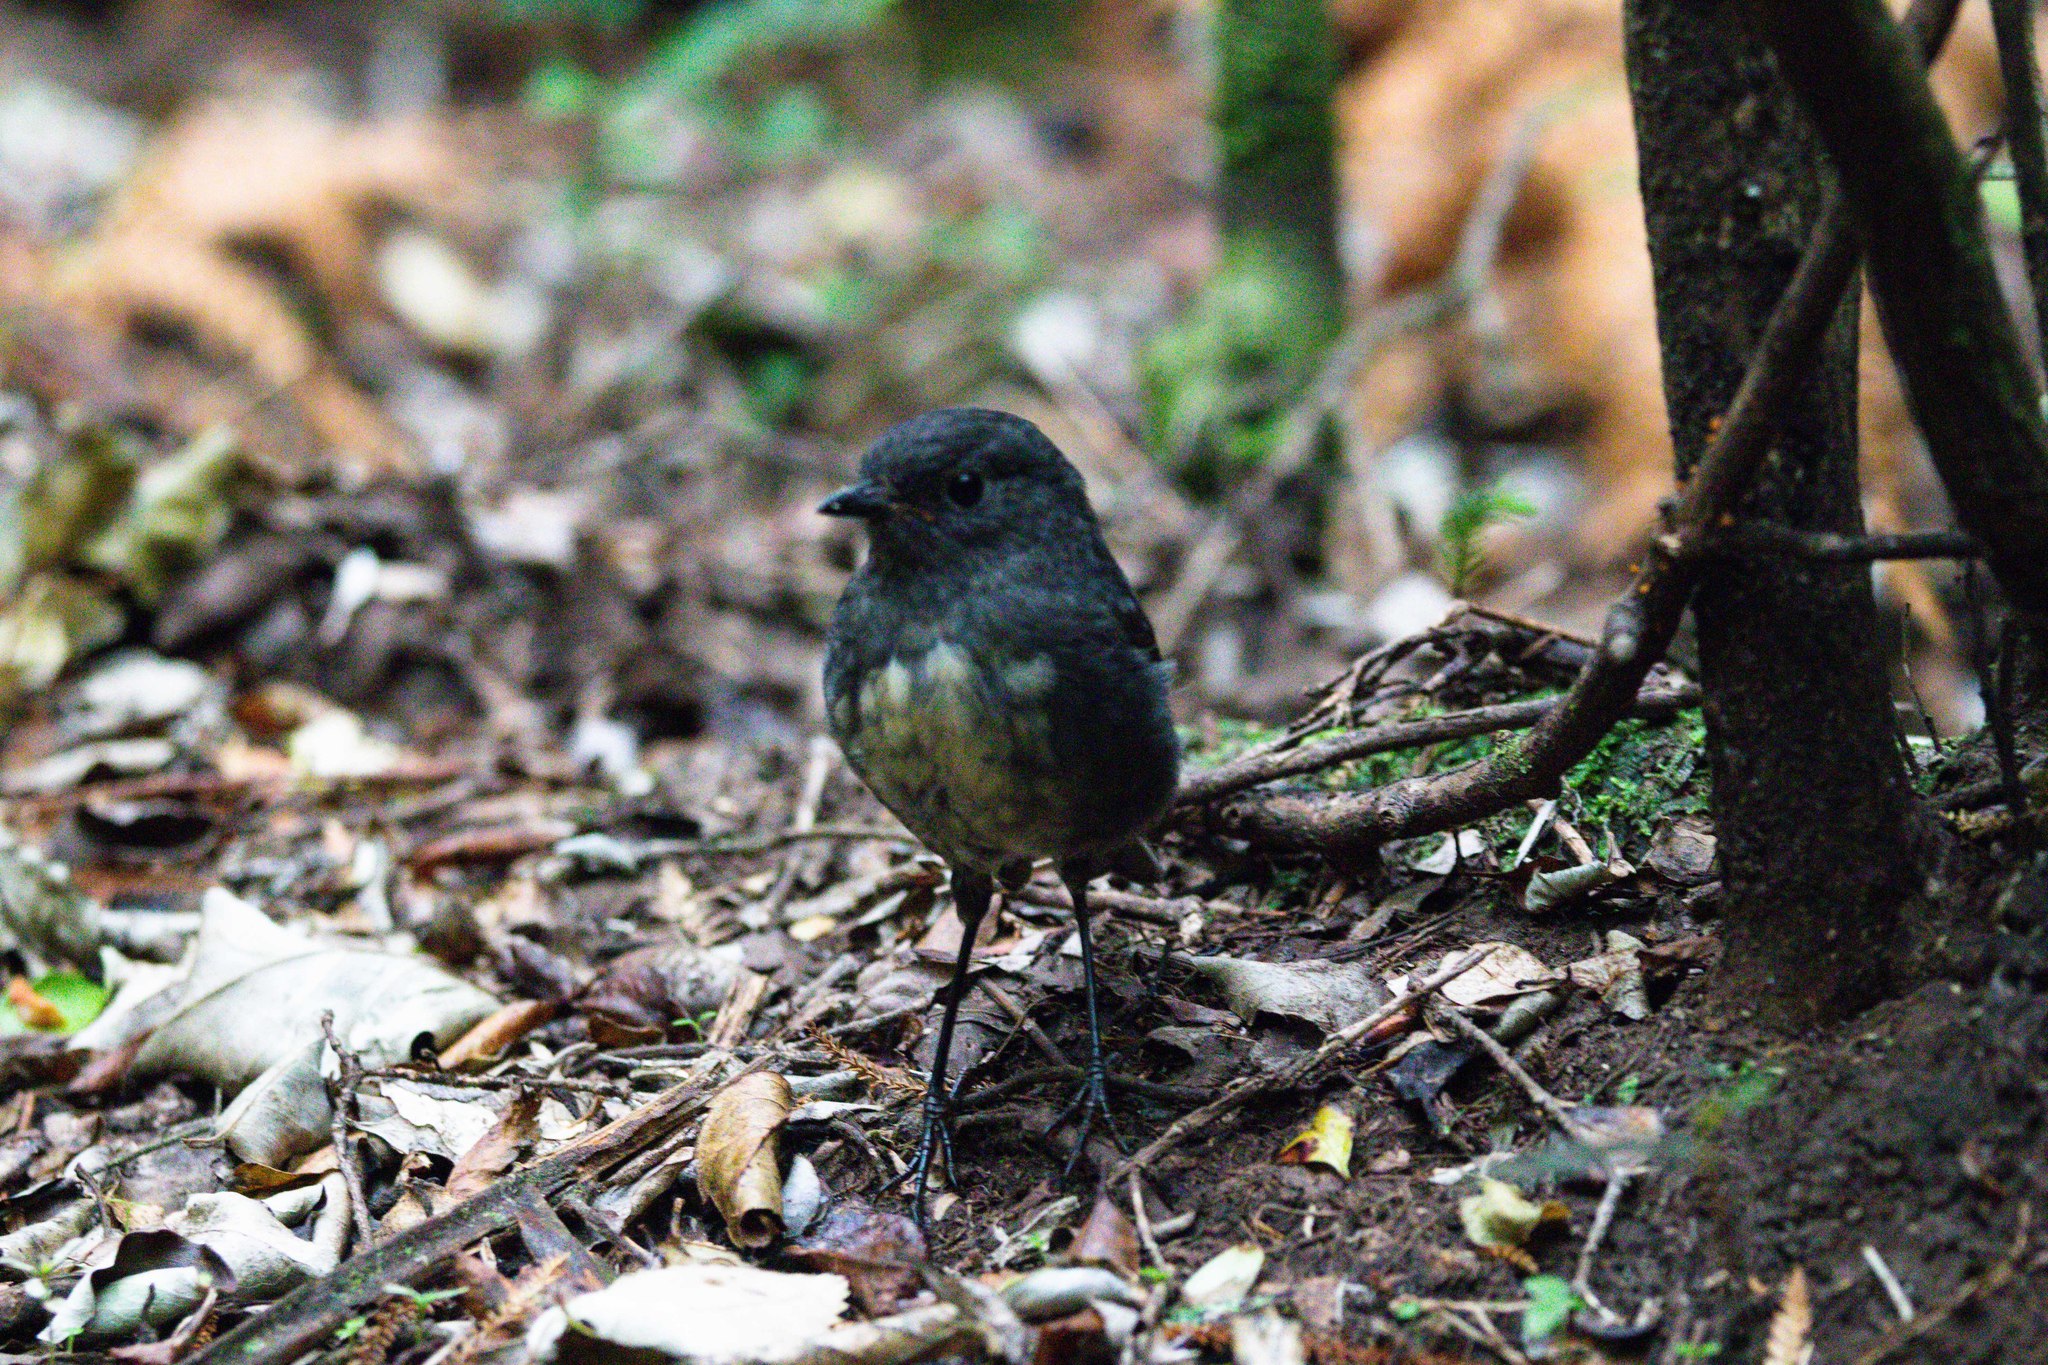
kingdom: Animalia
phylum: Chordata
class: Aves
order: Passeriformes
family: Petroicidae
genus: Petroica
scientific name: Petroica australis
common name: New zealand robin
